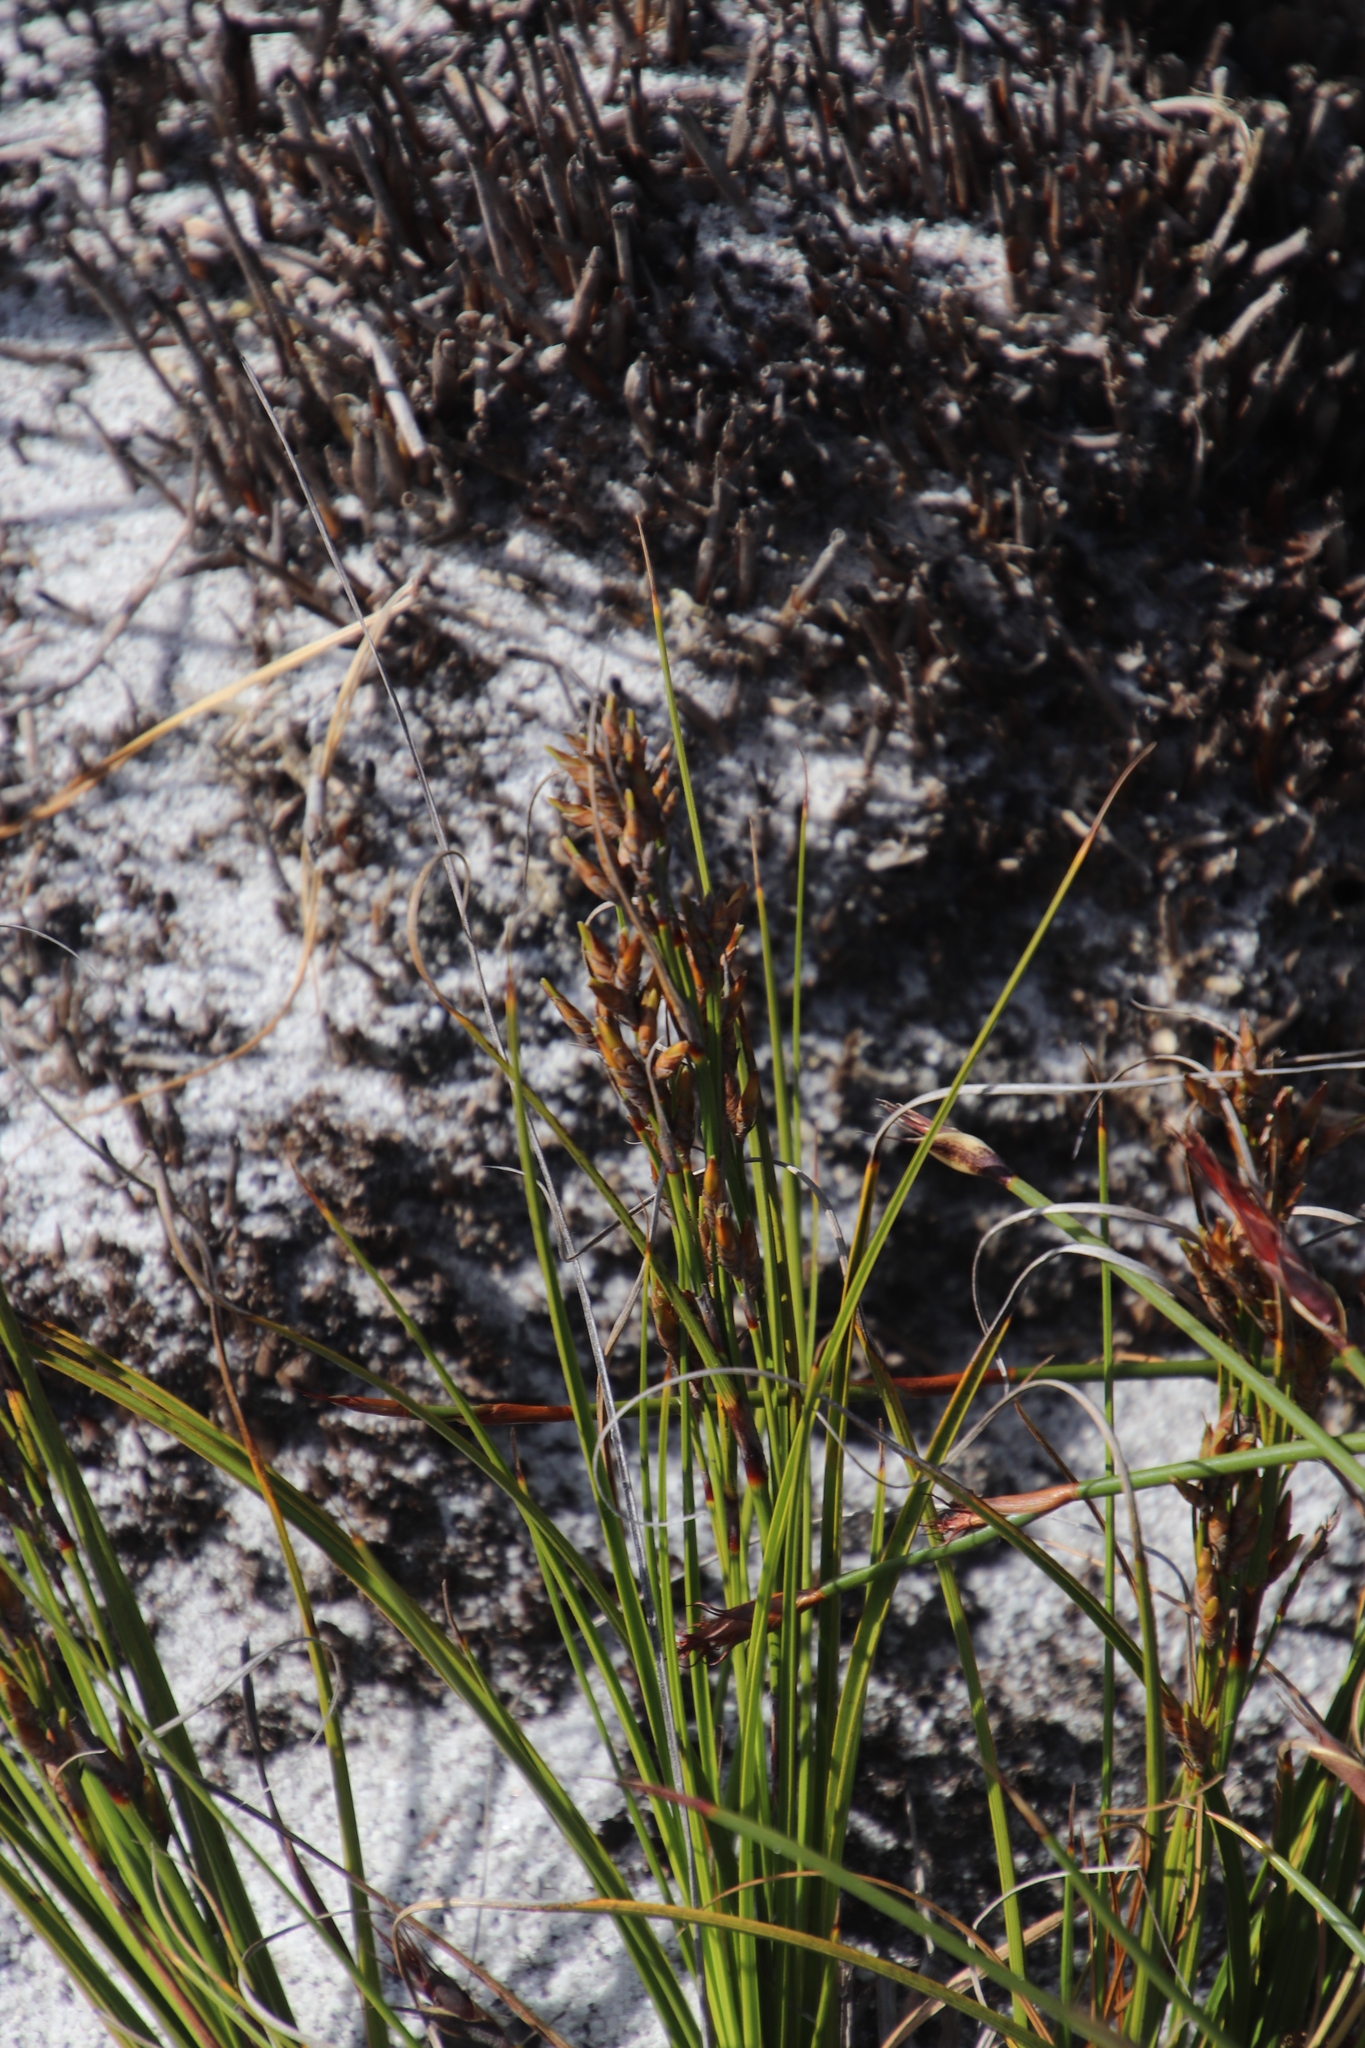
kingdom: Plantae
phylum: Tracheophyta
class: Liliopsida
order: Poales
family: Cyperaceae
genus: Tetraria
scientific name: Tetraria microstachys
